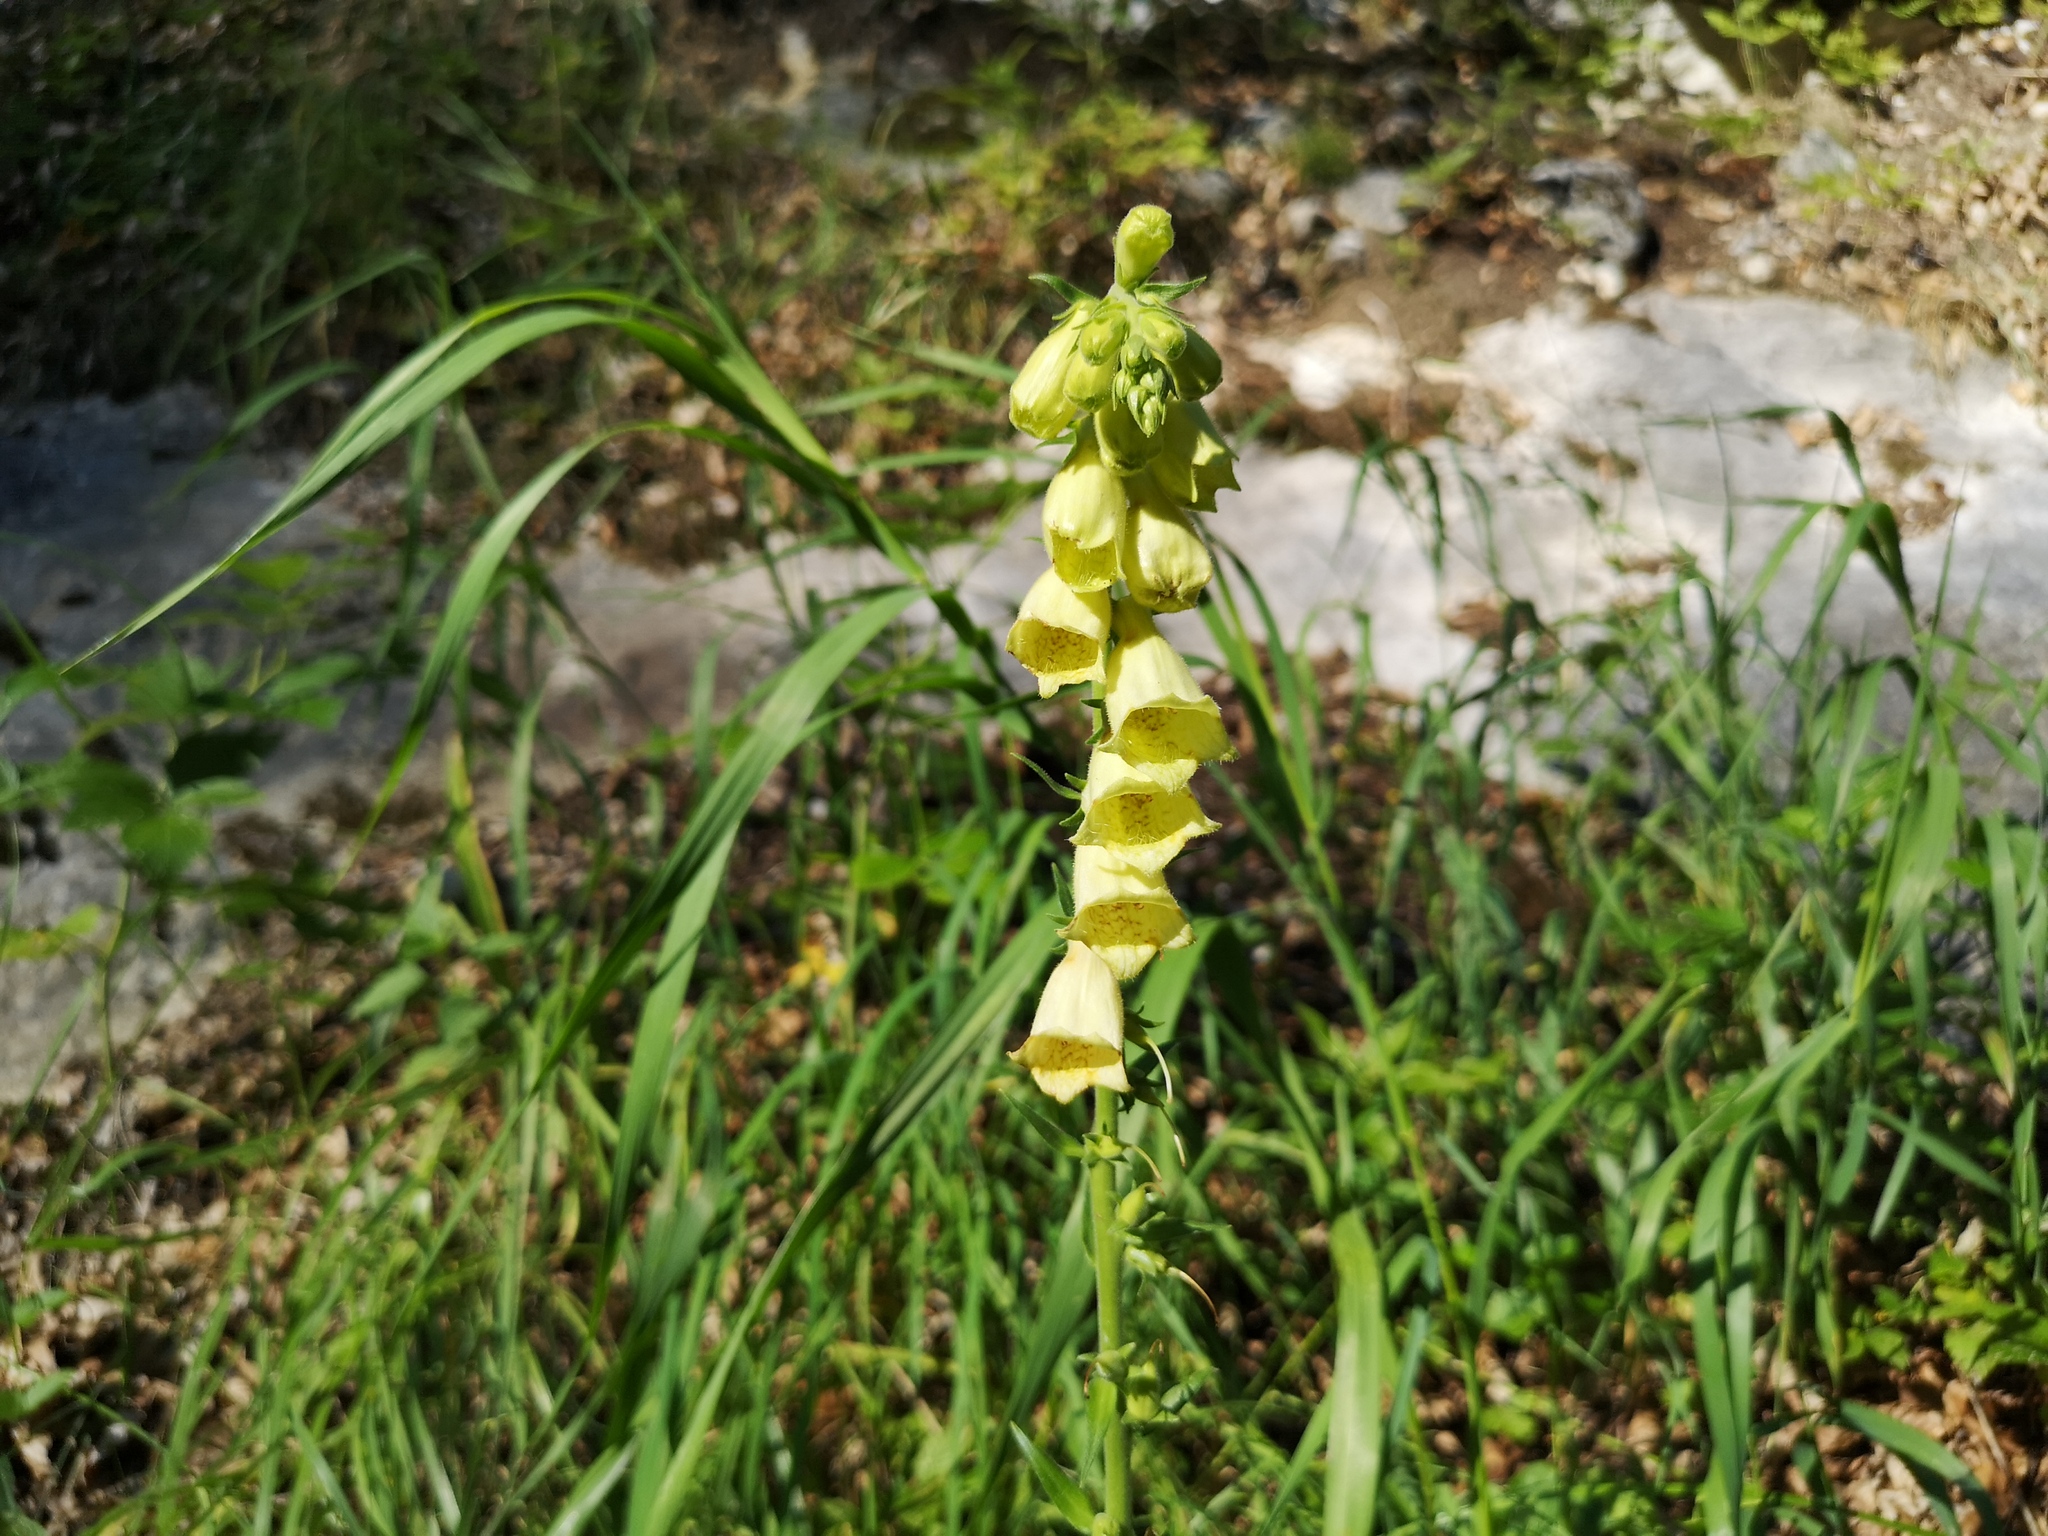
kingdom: Plantae
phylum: Tracheophyta
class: Magnoliopsida
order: Lamiales
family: Plantaginaceae
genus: Digitalis
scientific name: Digitalis grandiflora
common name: Yellow foxglove
